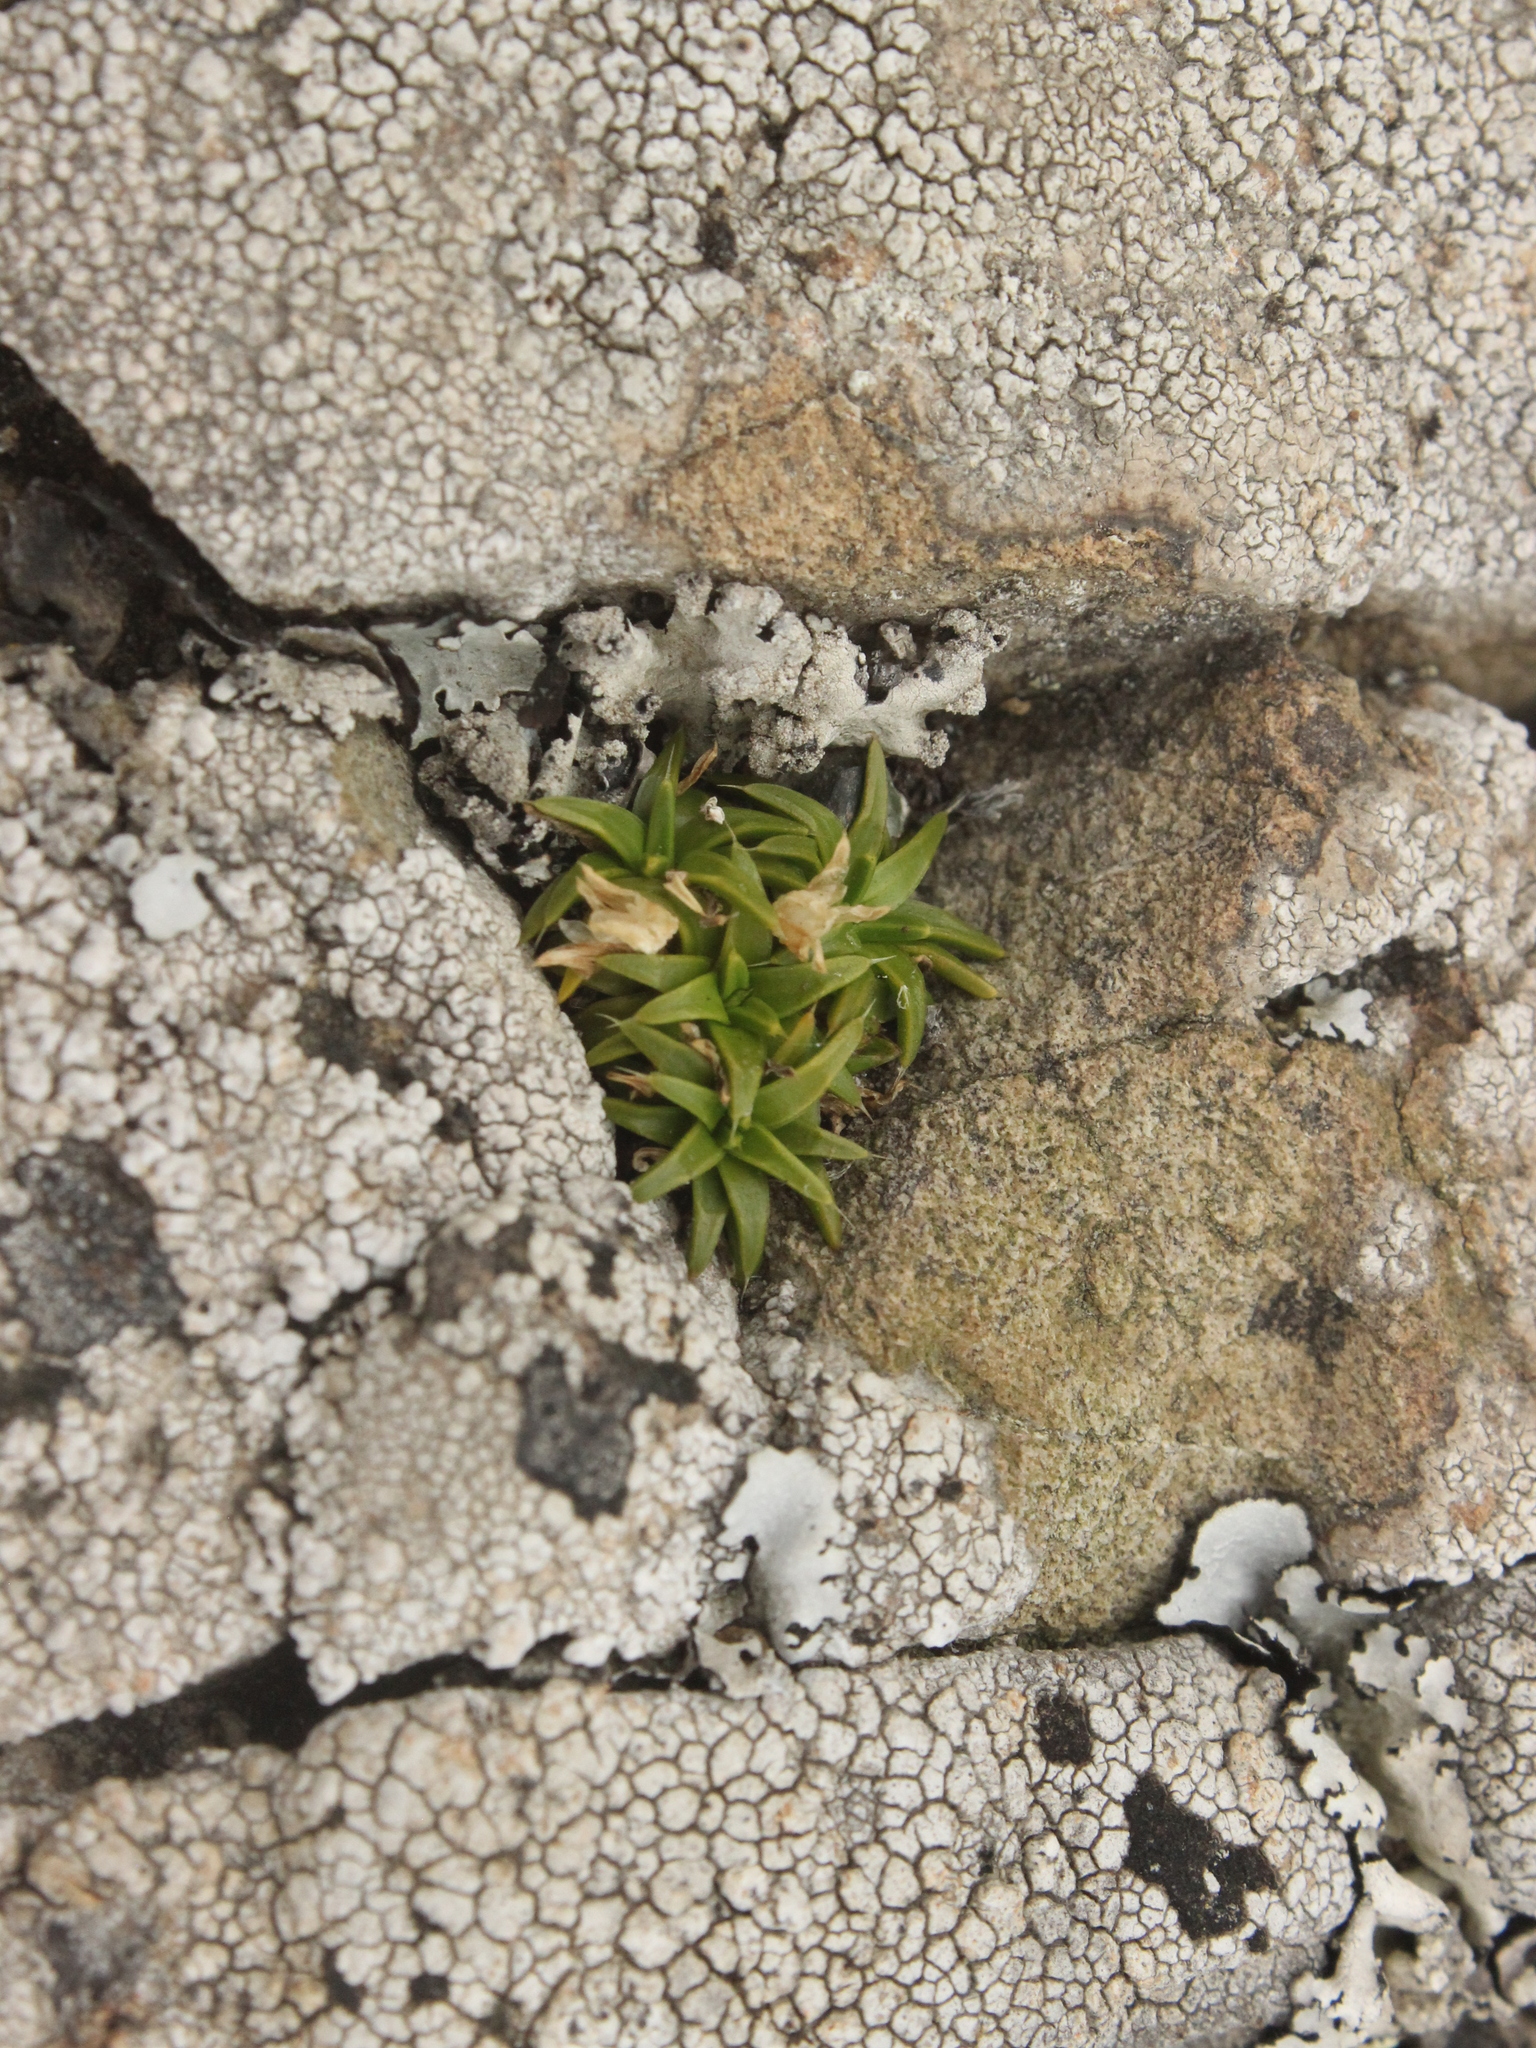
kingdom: Plantae
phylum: Tracheophyta
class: Magnoliopsida
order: Caryophyllales
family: Caryophyllaceae
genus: Colobanthus
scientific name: Colobanthus muelleri
